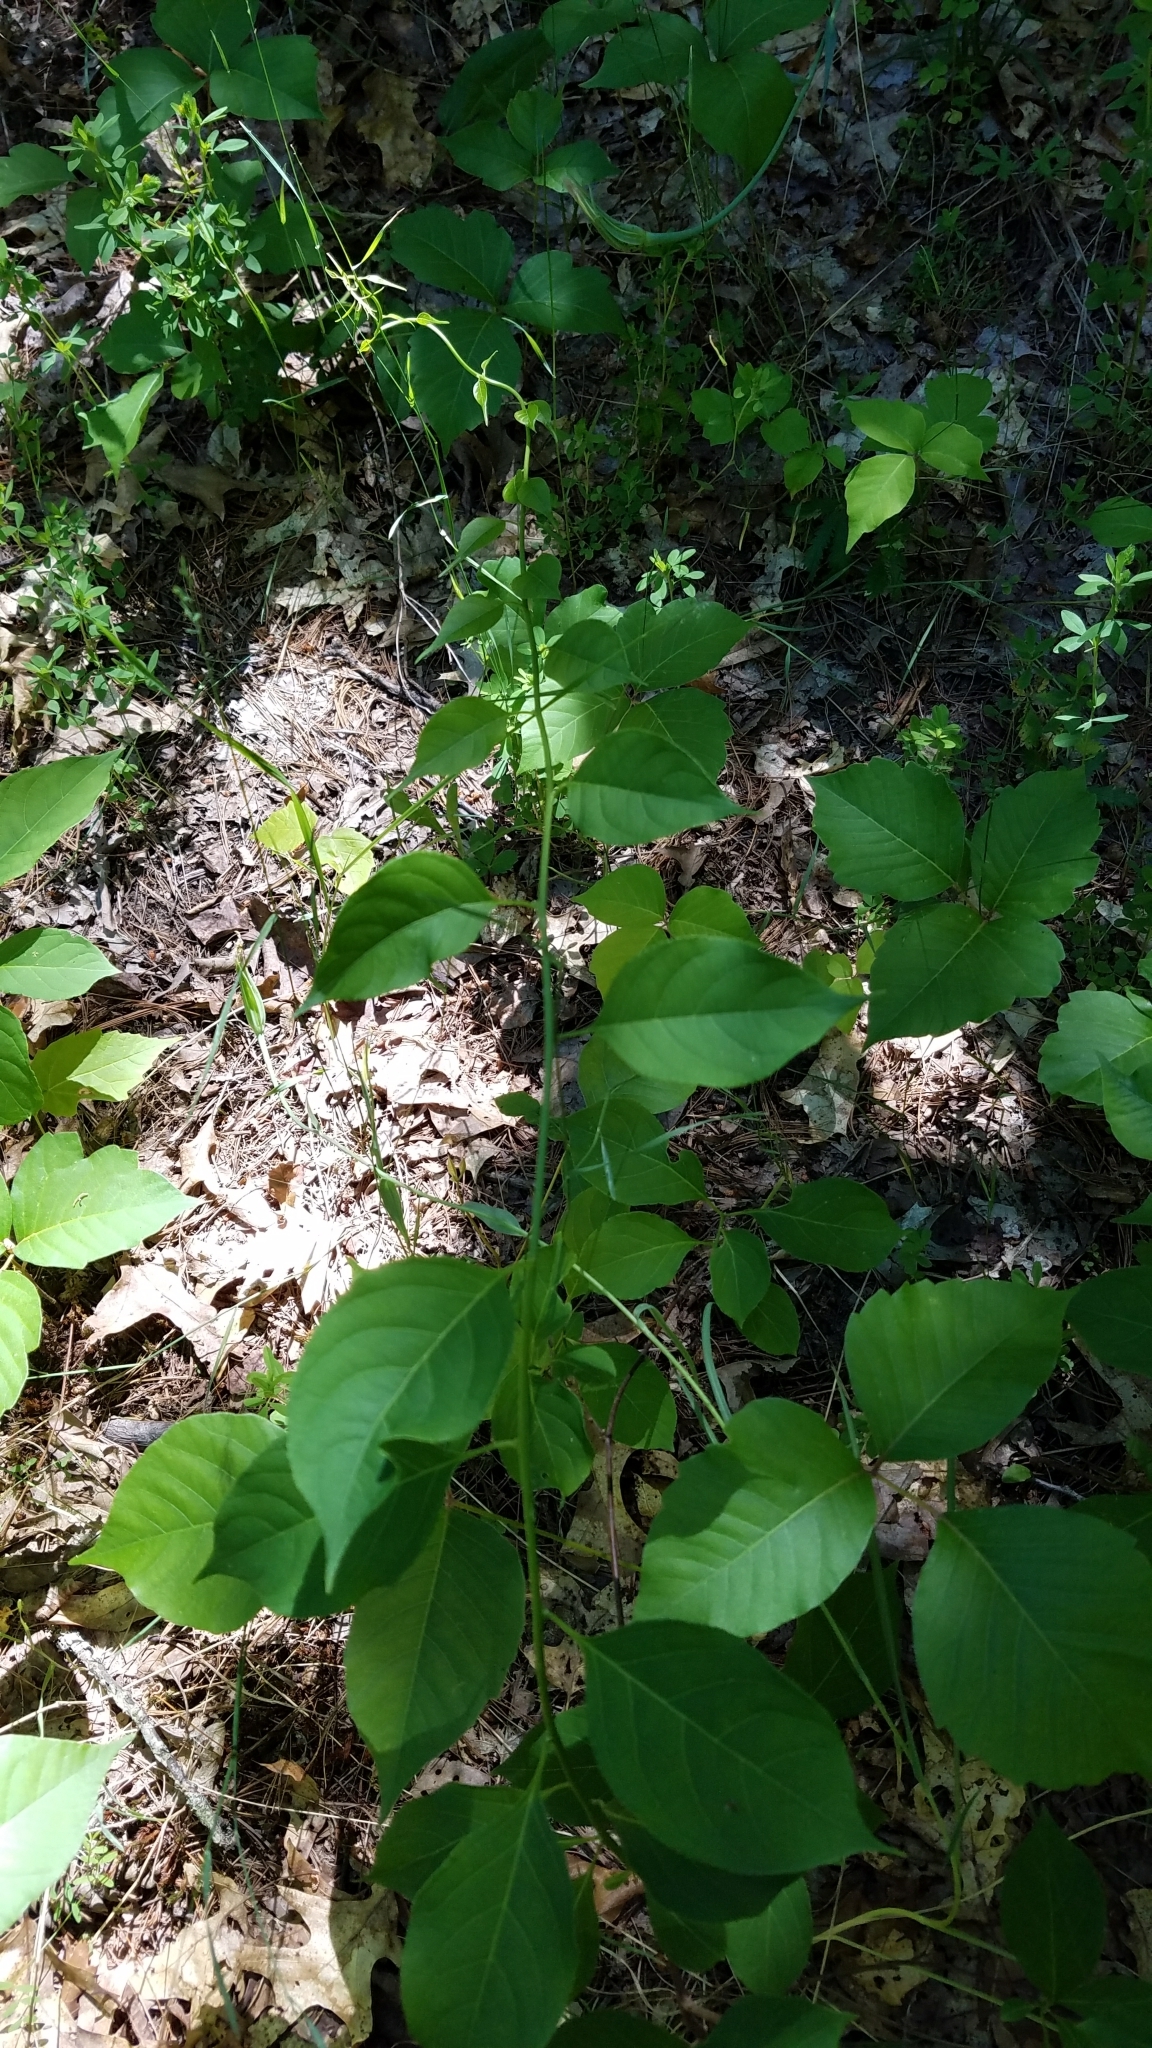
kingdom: Plantae
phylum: Tracheophyta
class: Magnoliopsida
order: Celastrales
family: Celastraceae
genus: Celastrus
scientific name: Celastrus scandens
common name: American bittersweet
